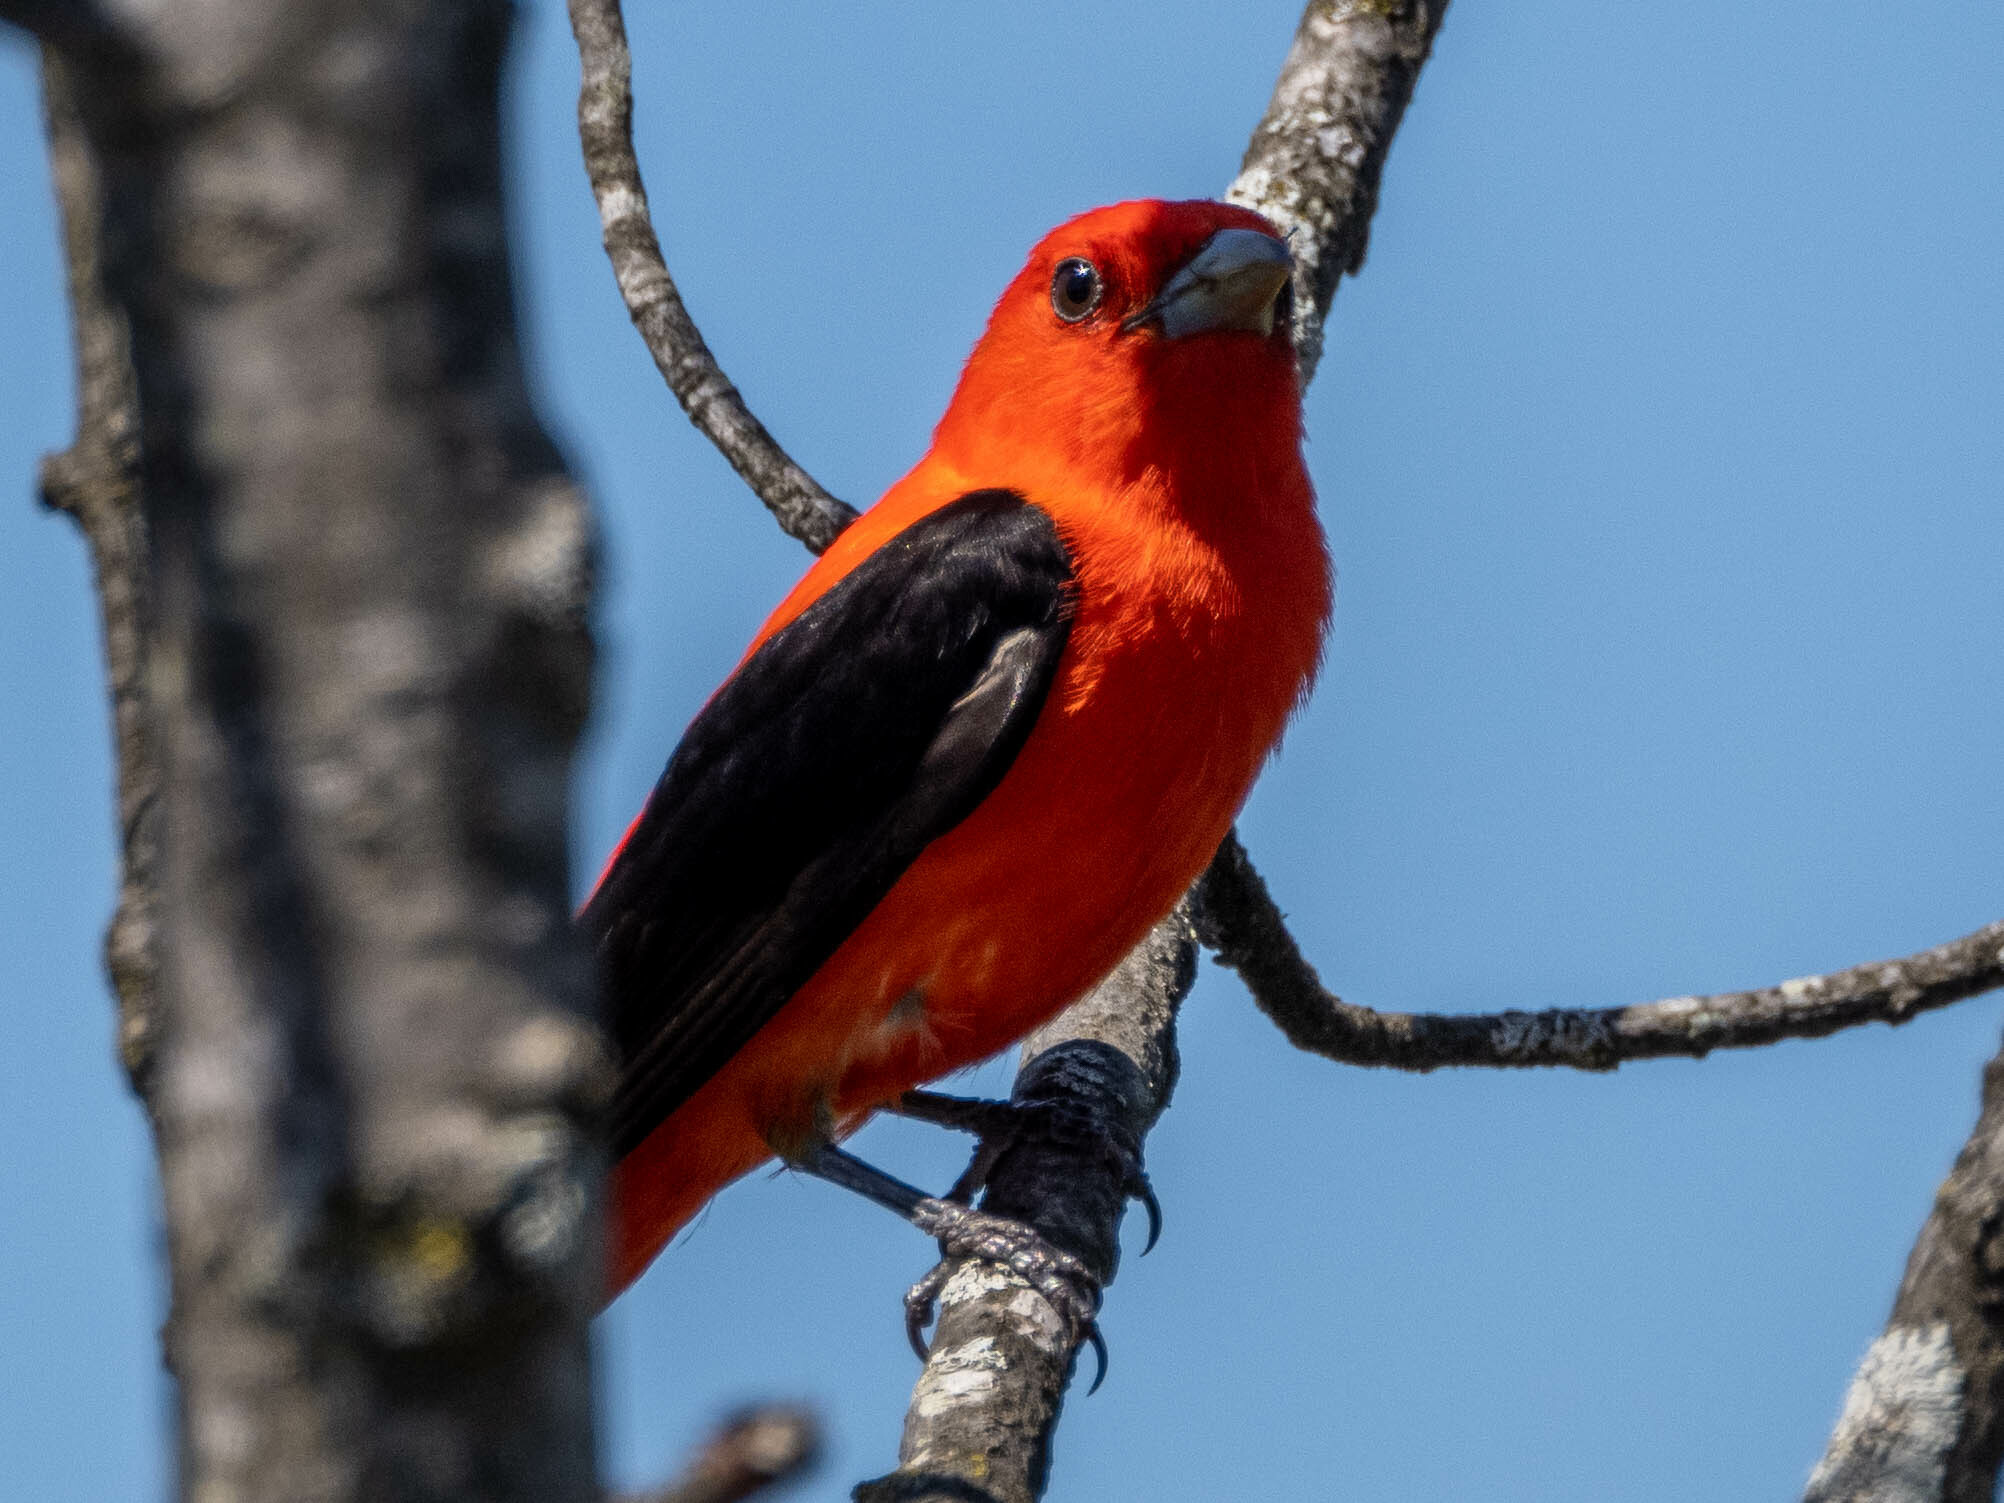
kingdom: Animalia
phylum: Chordata
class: Aves
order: Passeriformes
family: Cardinalidae
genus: Piranga
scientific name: Piranga olivacea
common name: Scarlet tanager
